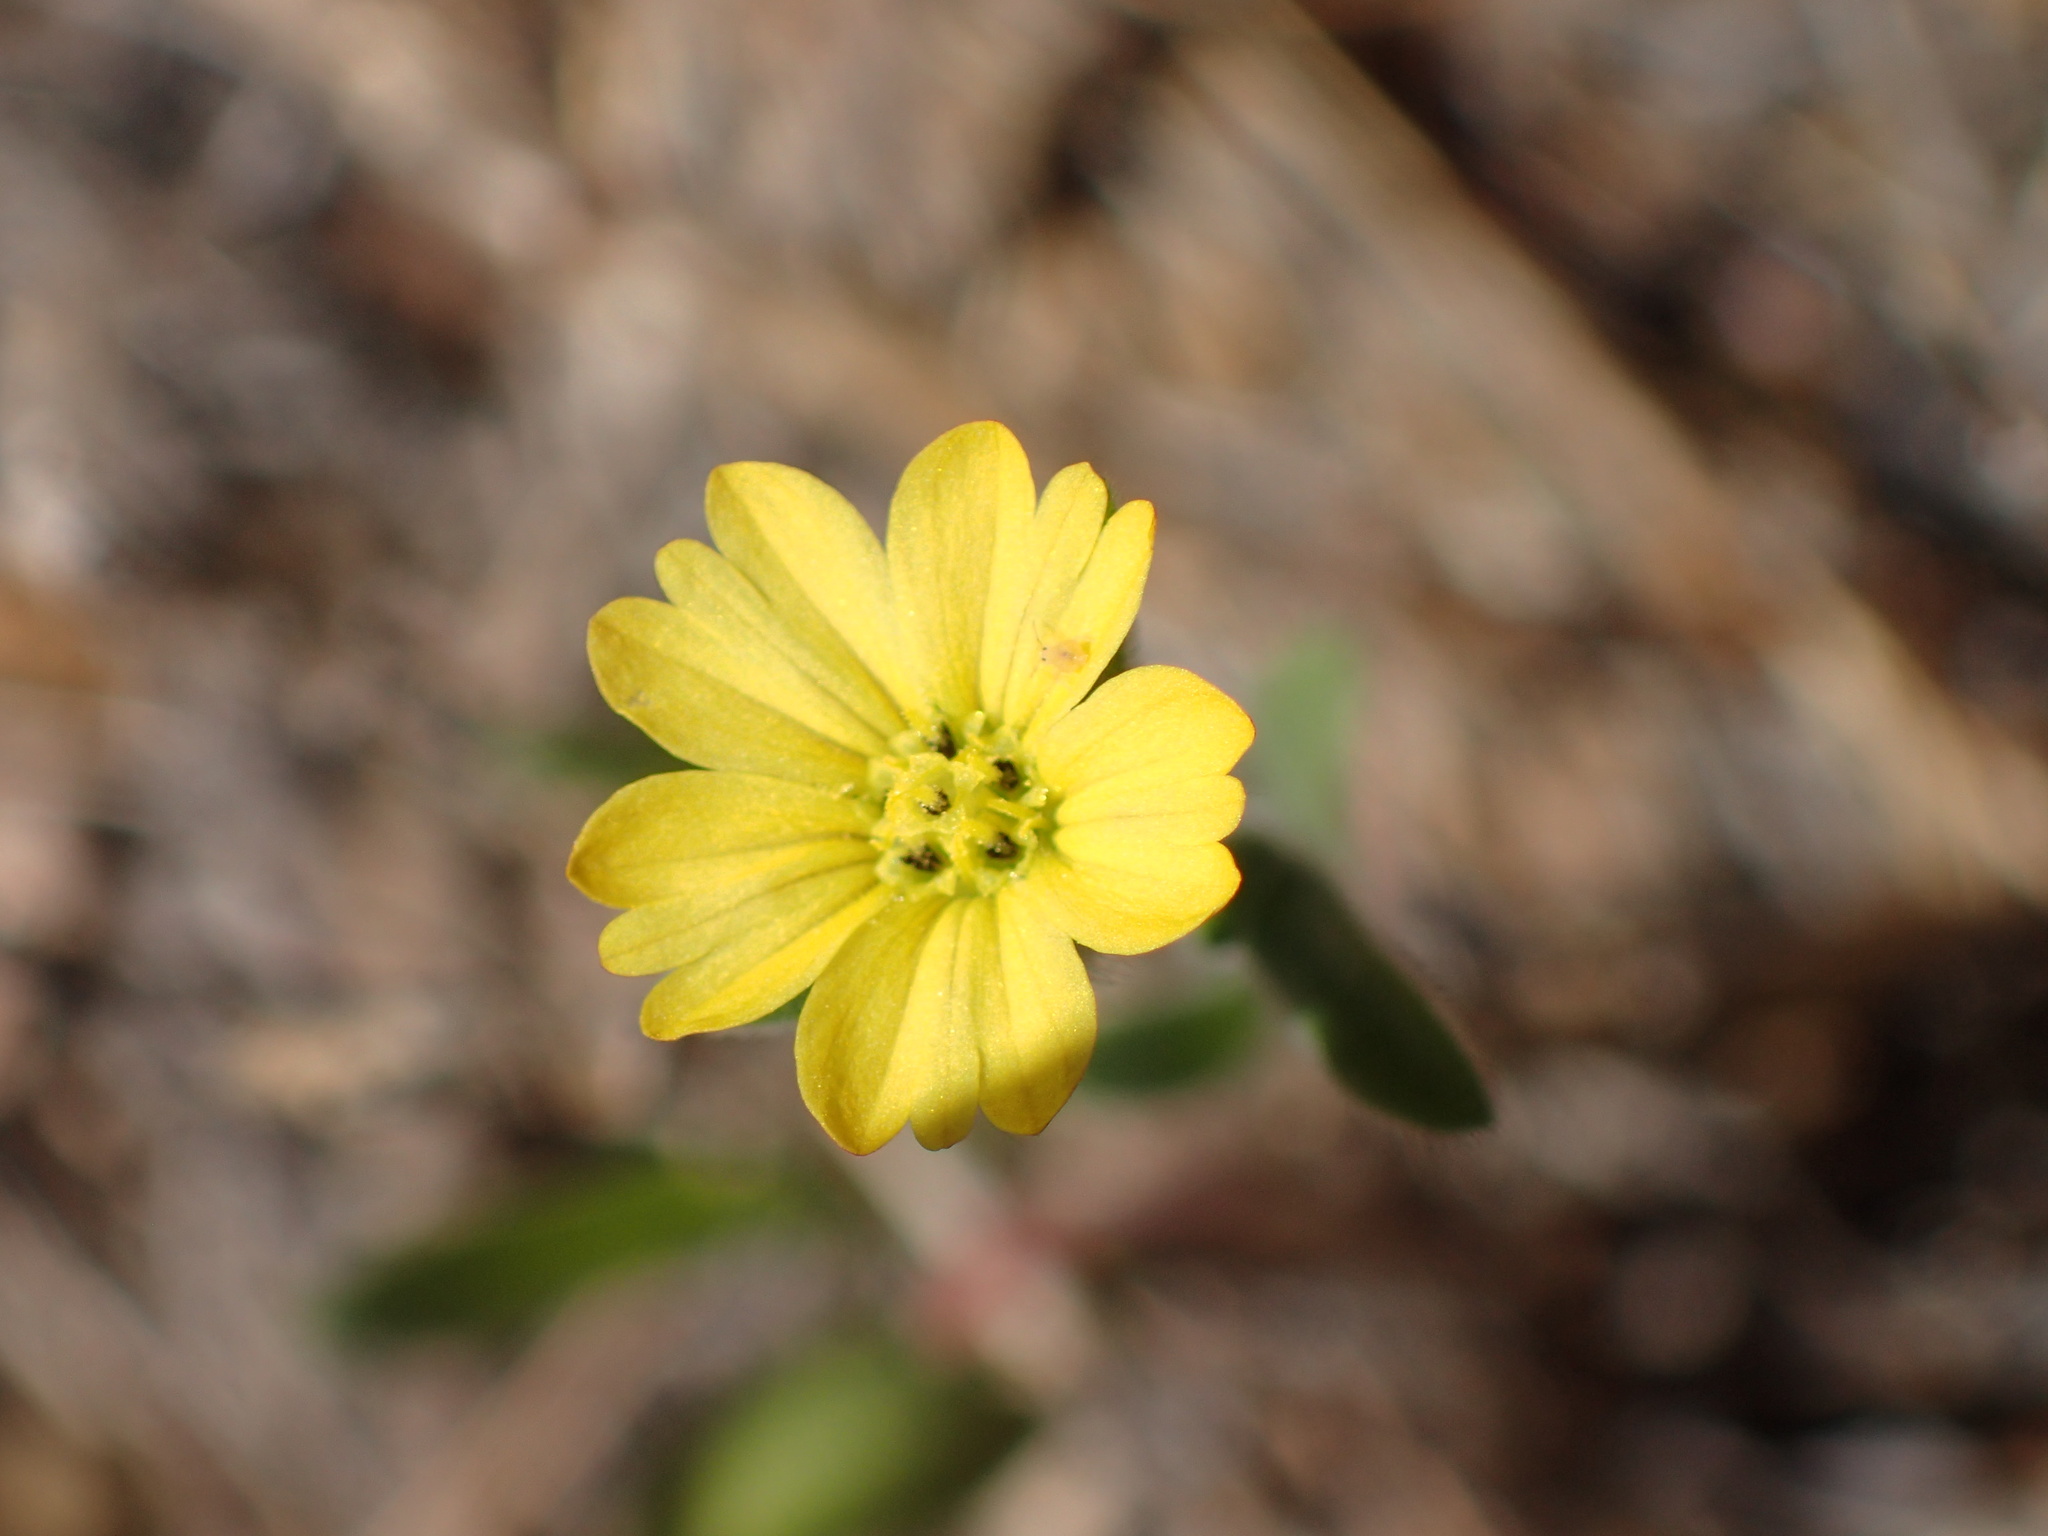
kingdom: Plantae
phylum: Tracheophyta
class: Magnoliopsida
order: Asterales
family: Asteraceae
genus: Lagophylla
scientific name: Lagophylla ramosissima
